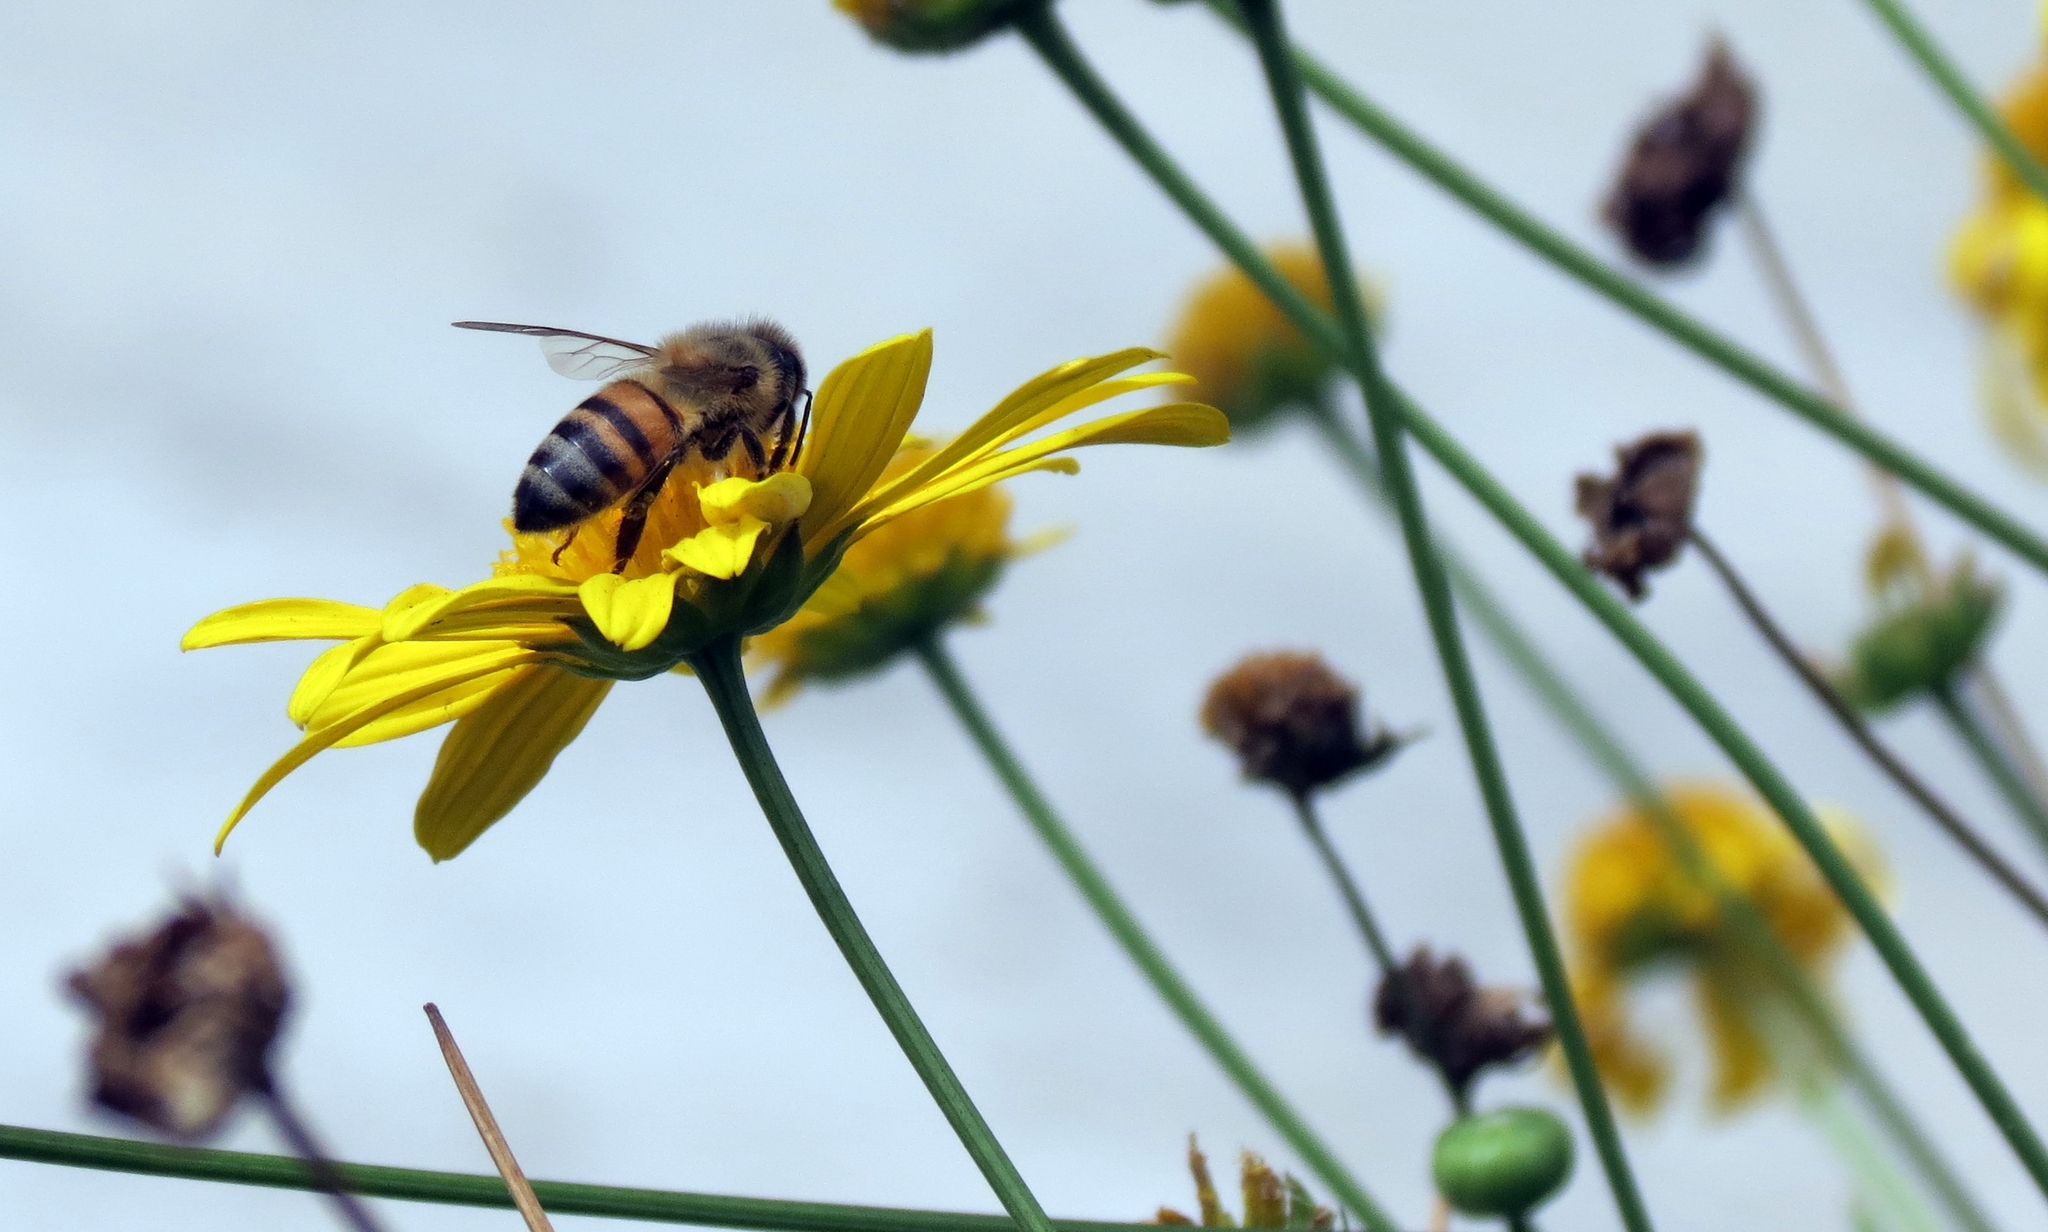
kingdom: Animalia
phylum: Arthropoda
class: Insecta
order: Hymenoptera
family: Apidae
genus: Apis
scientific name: Apis mellifera
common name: Honey bee
